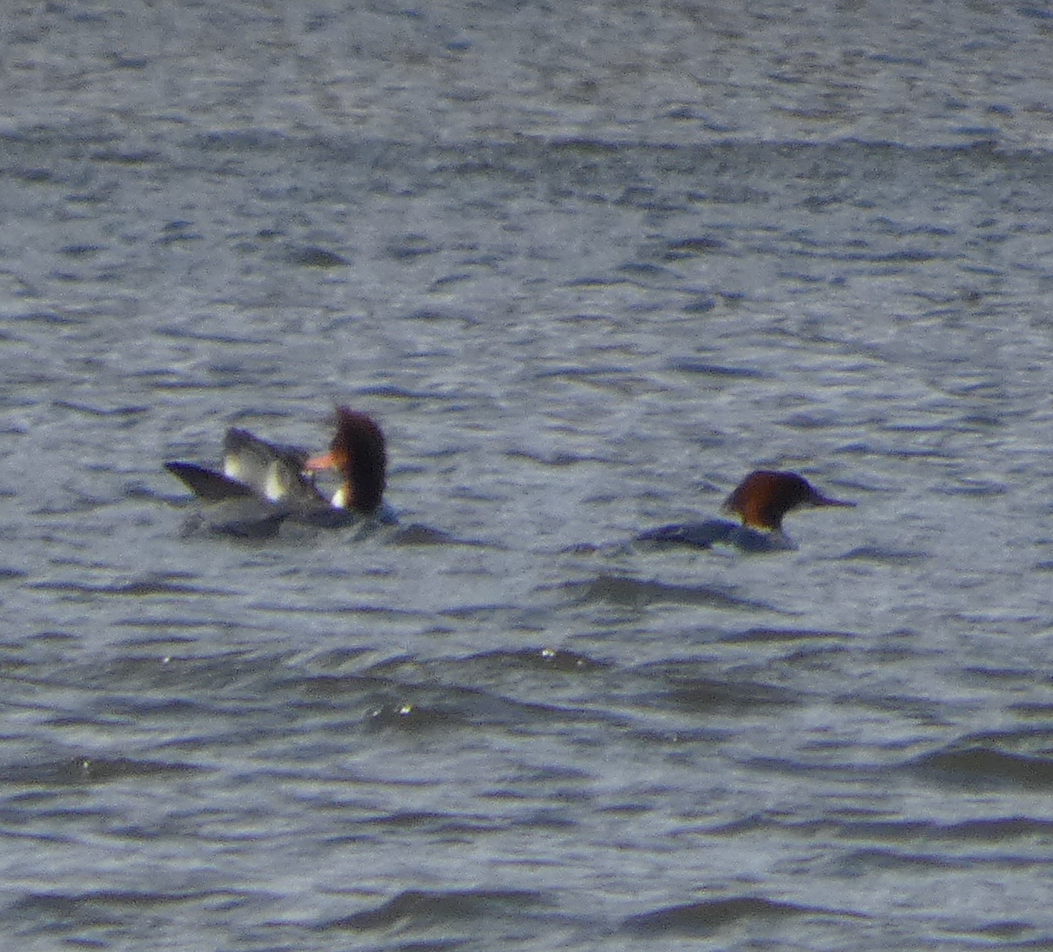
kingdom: Animalia
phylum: Chordata
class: Aves
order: Anseriformes
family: Anatidae
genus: Mergus
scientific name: Mergus merganser
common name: Common merganser
